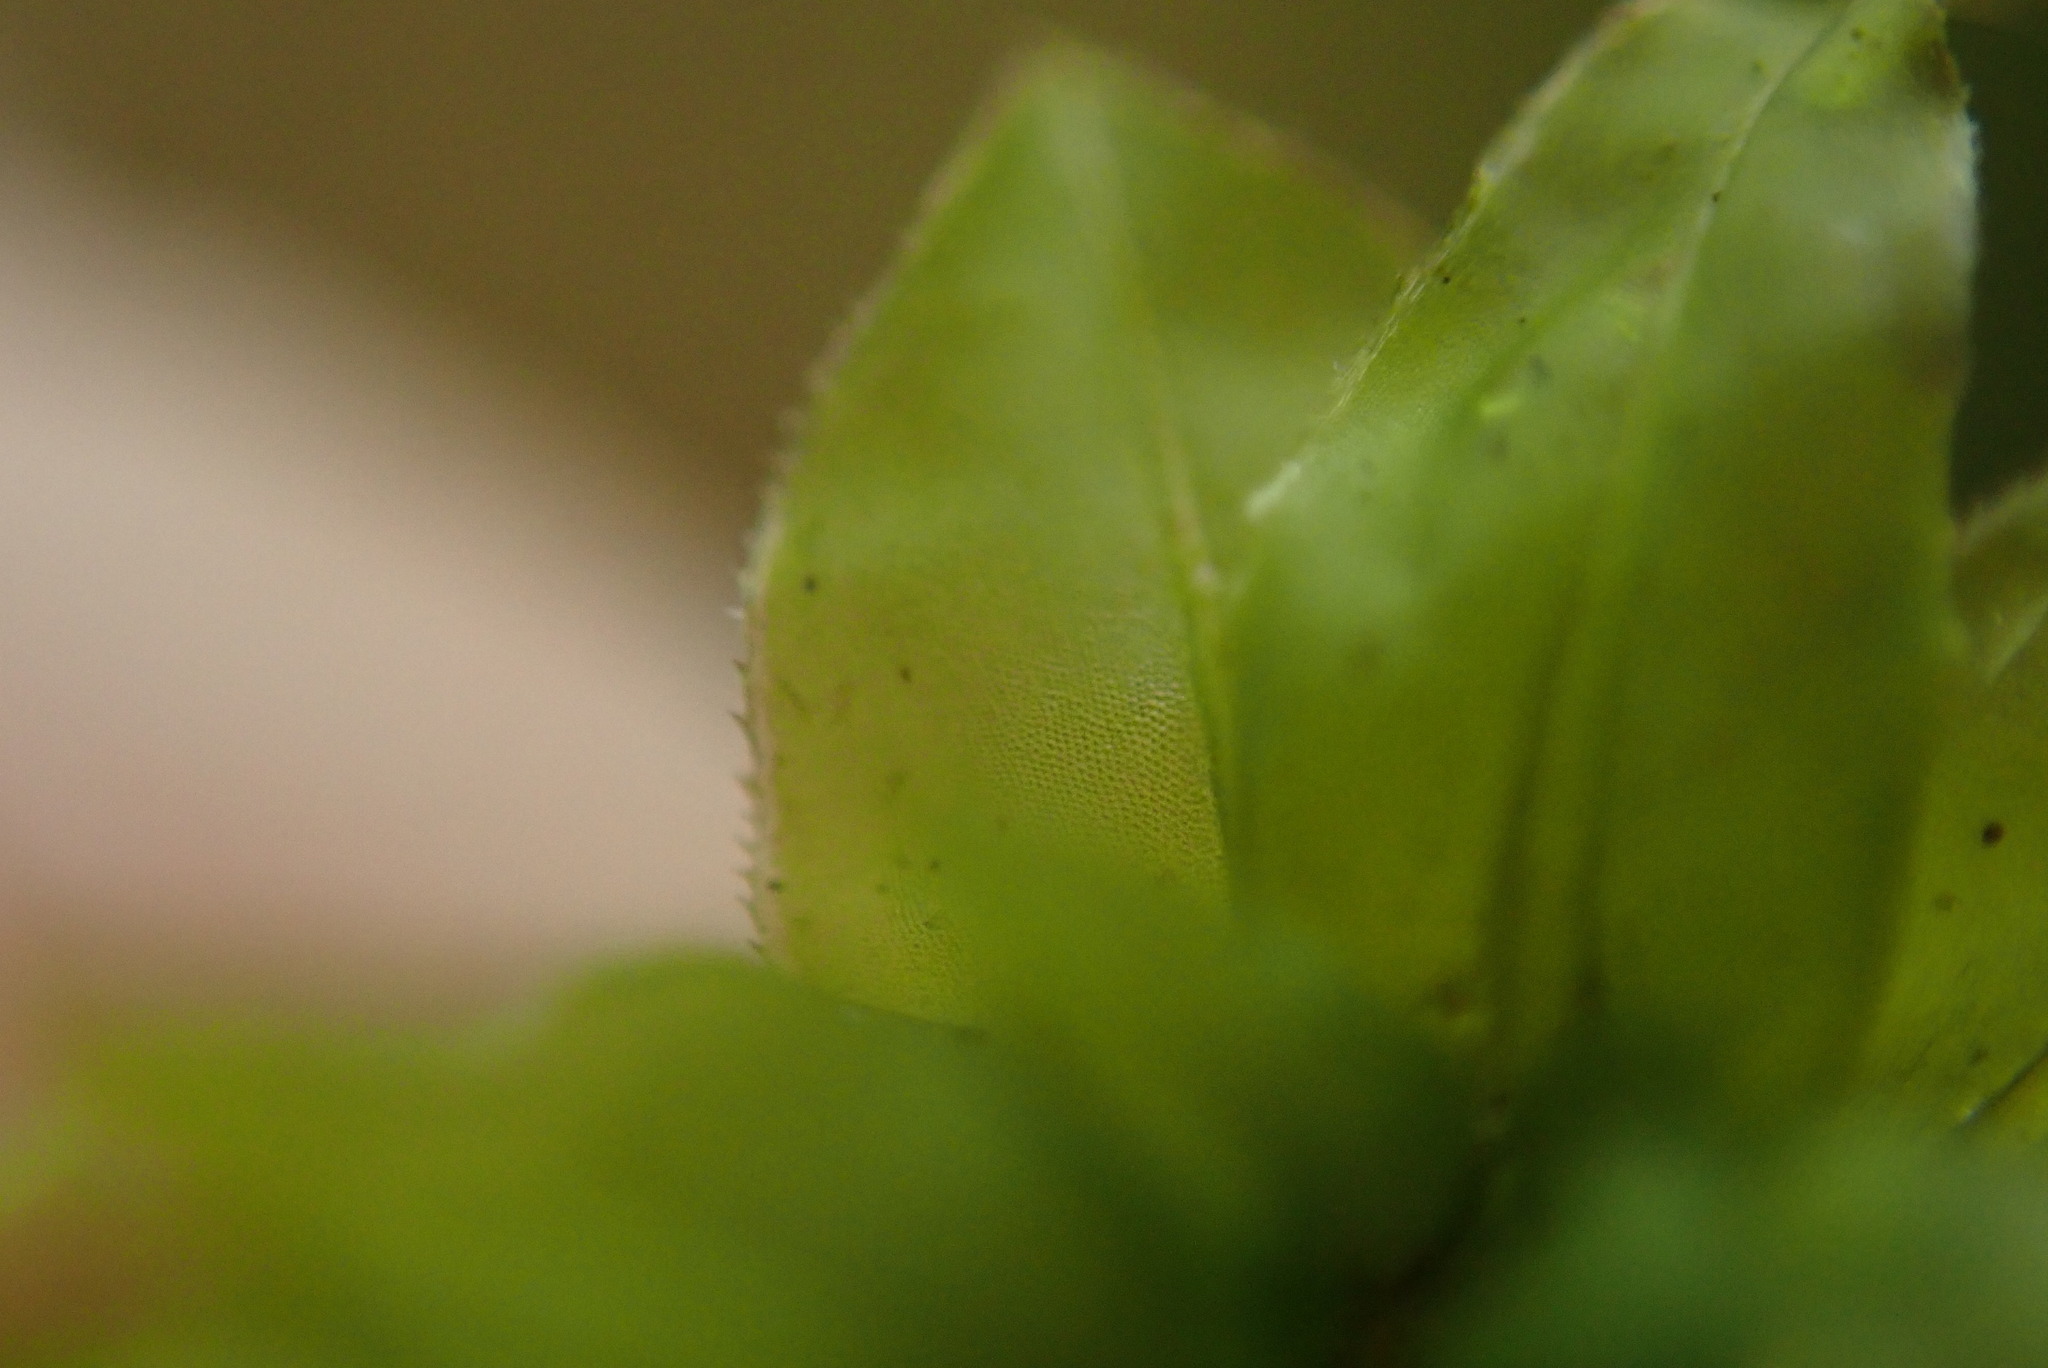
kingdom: Plantae
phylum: Bryophyta
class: Bryopsida
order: Bryales
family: Mniaceae
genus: Plagiomnium
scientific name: Plagiomnium venustum
